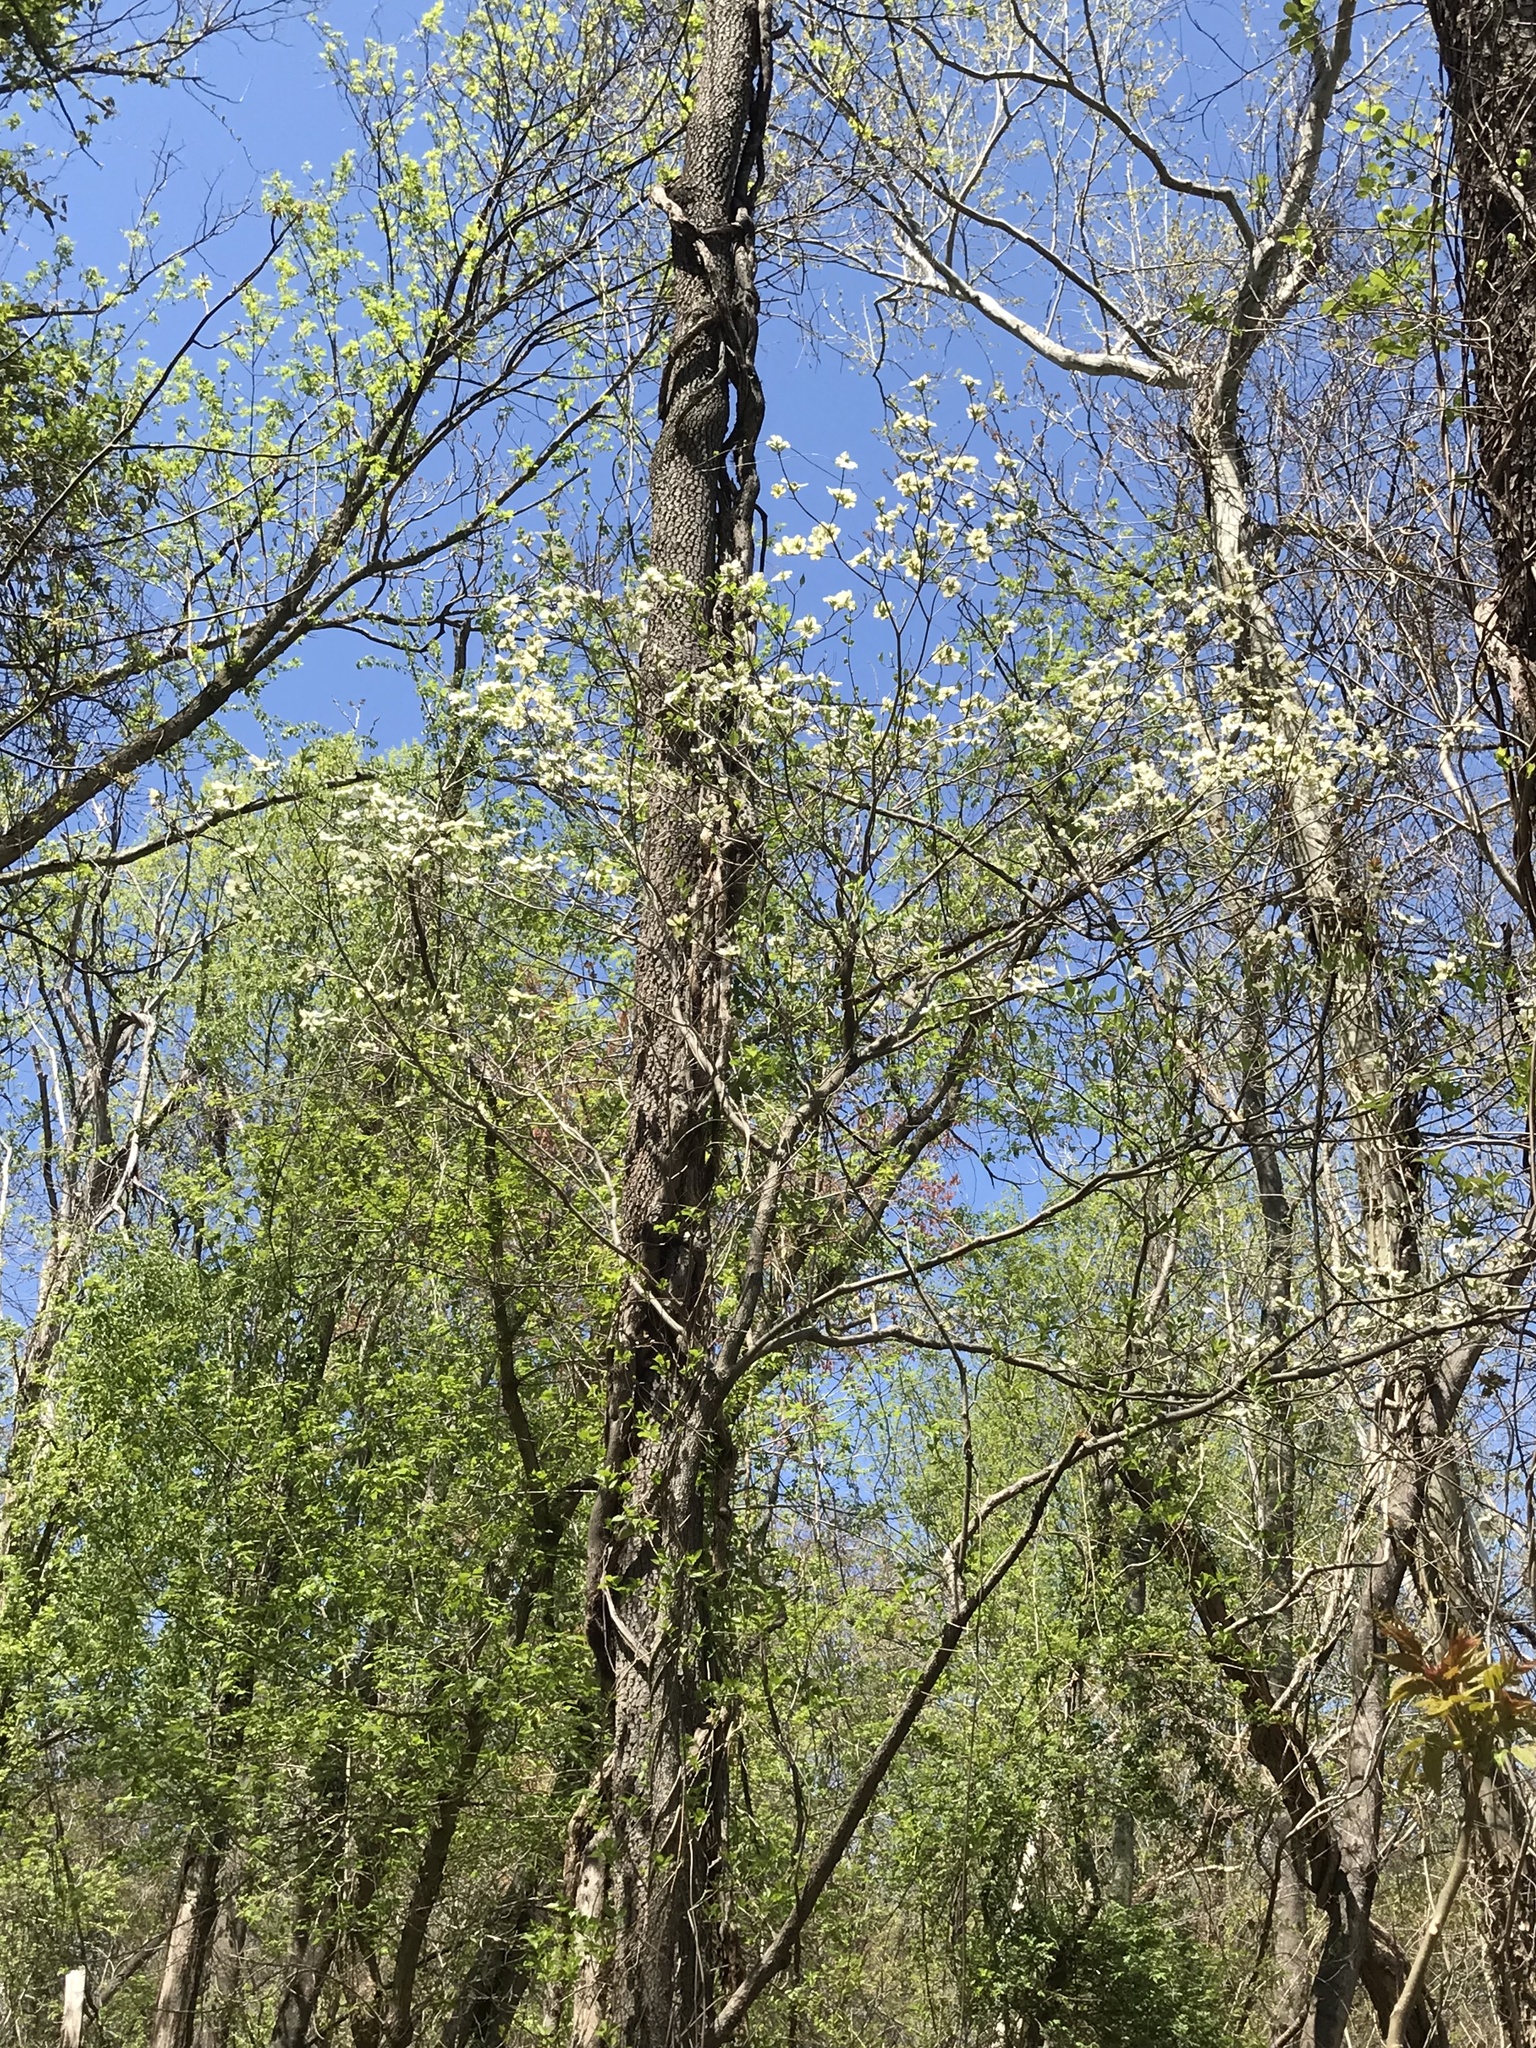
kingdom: Plantae
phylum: Tracheophyta
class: Magnoliopsida
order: Cornales
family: Cornaceae
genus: Cornus
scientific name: Cornus florida
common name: Flowering dogwood
